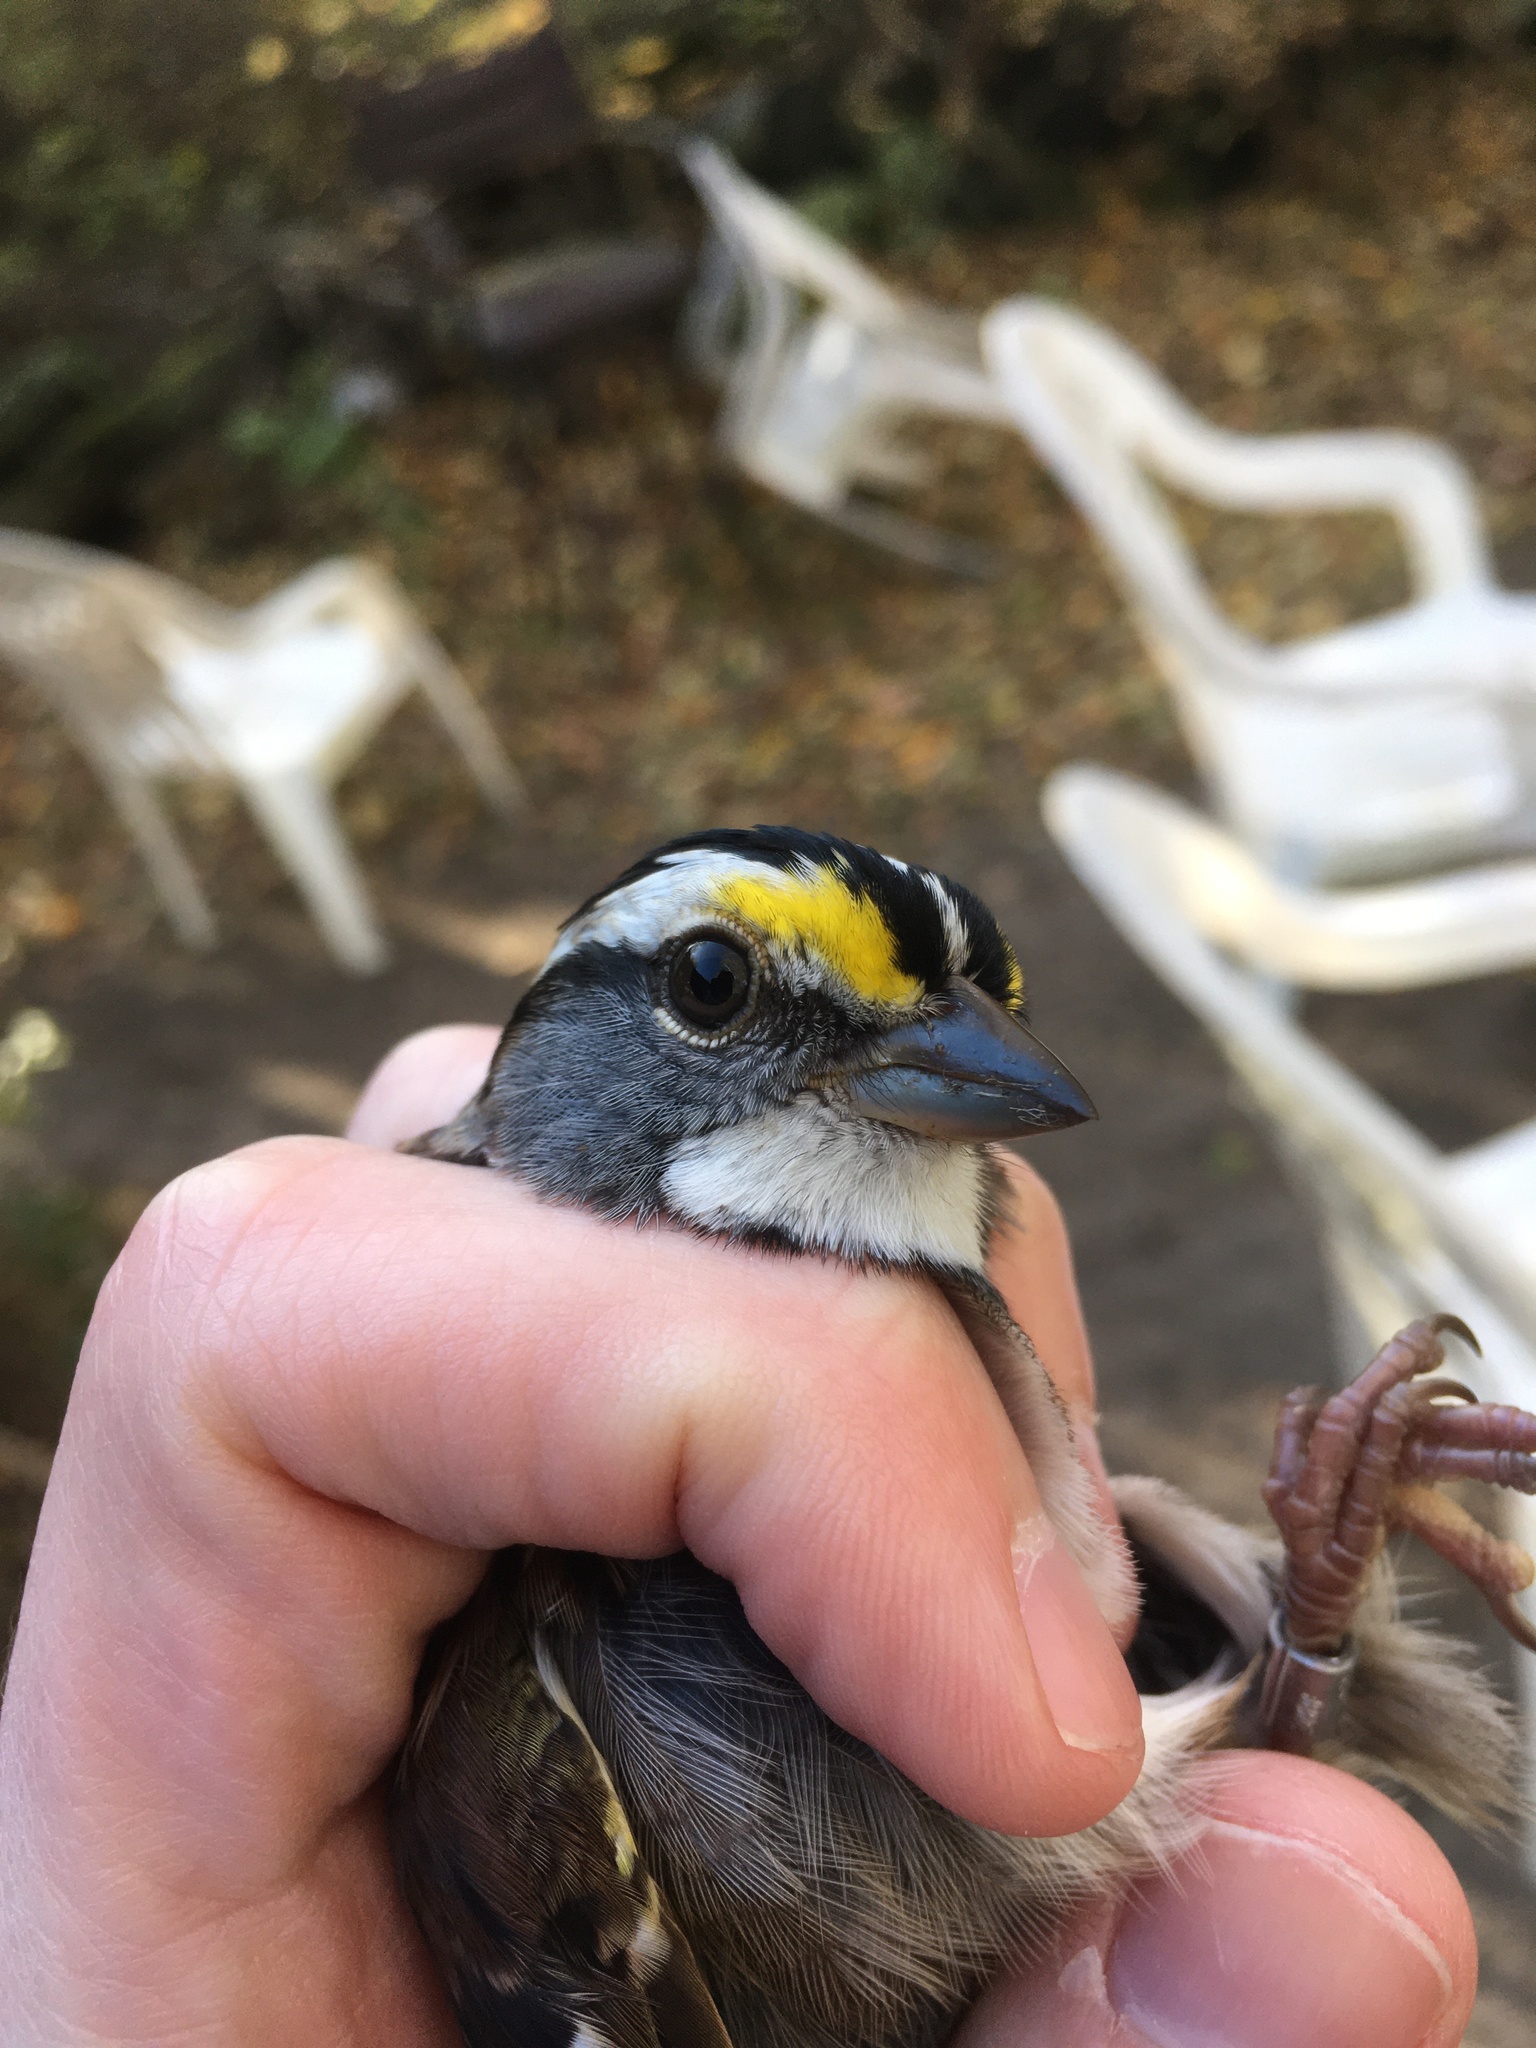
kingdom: Animalia
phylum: Chordata
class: Aves
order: Passeriformes
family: Passerellidae
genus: Zonotrichia
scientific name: Zonotrichia albicollis
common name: White-throated sparrow
